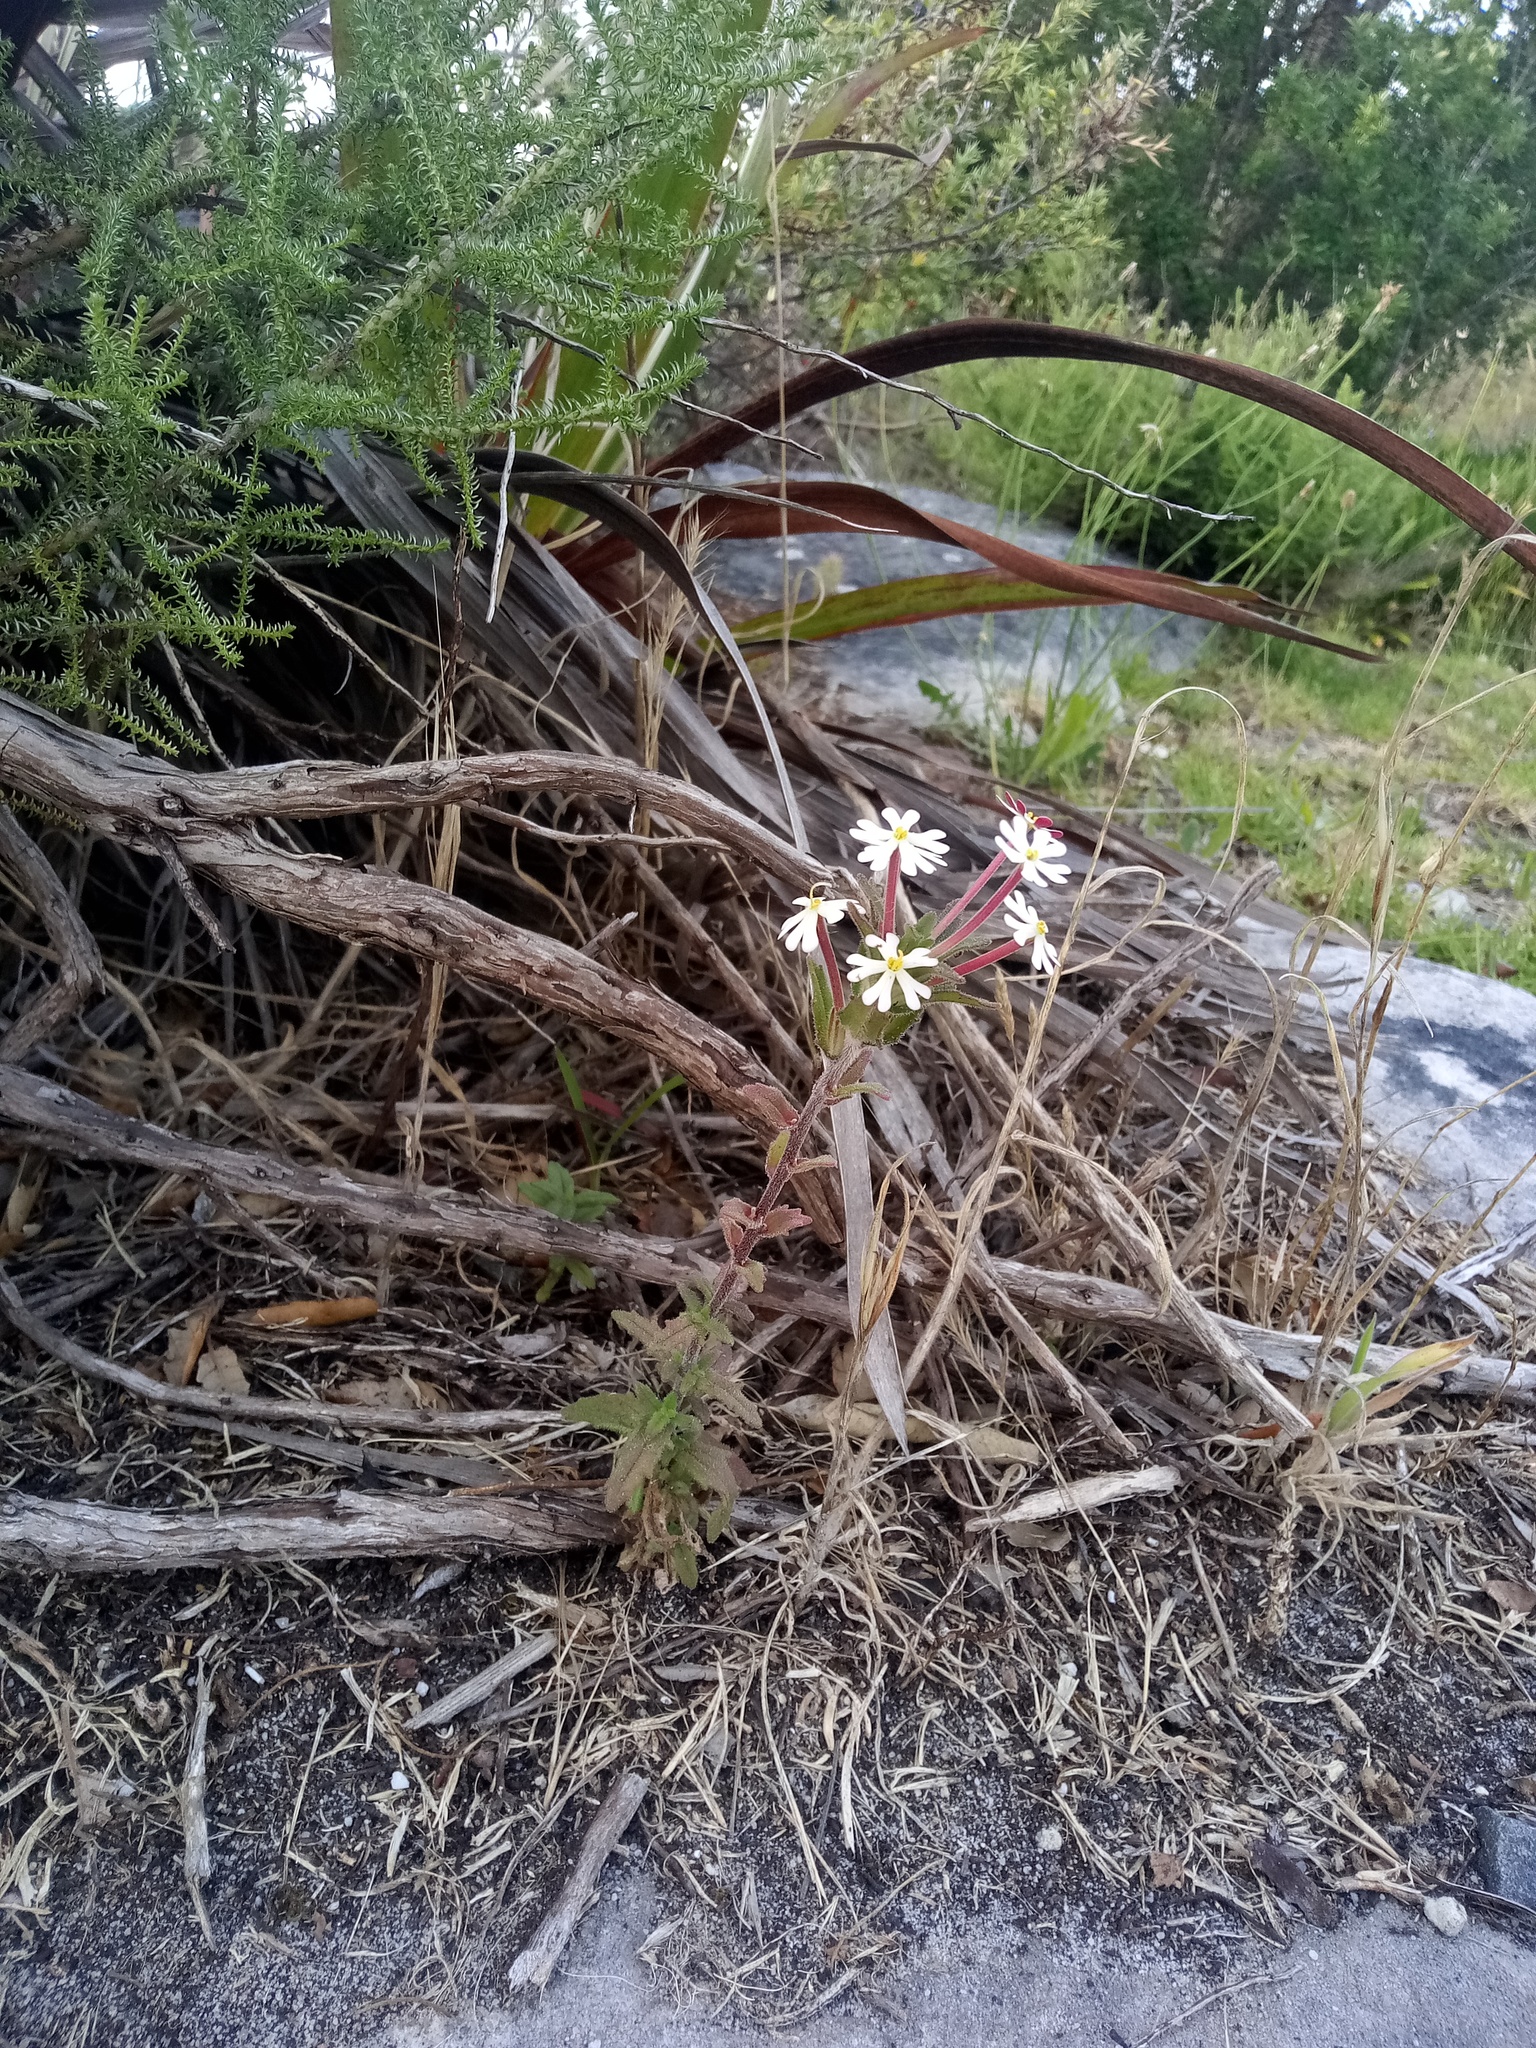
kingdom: Plantae
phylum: Tracheophyta
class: Magnoliopsida
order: Lamiales
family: Scrophulariaceae
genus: Zaluzianskya
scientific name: Zaluzianskya capensis
